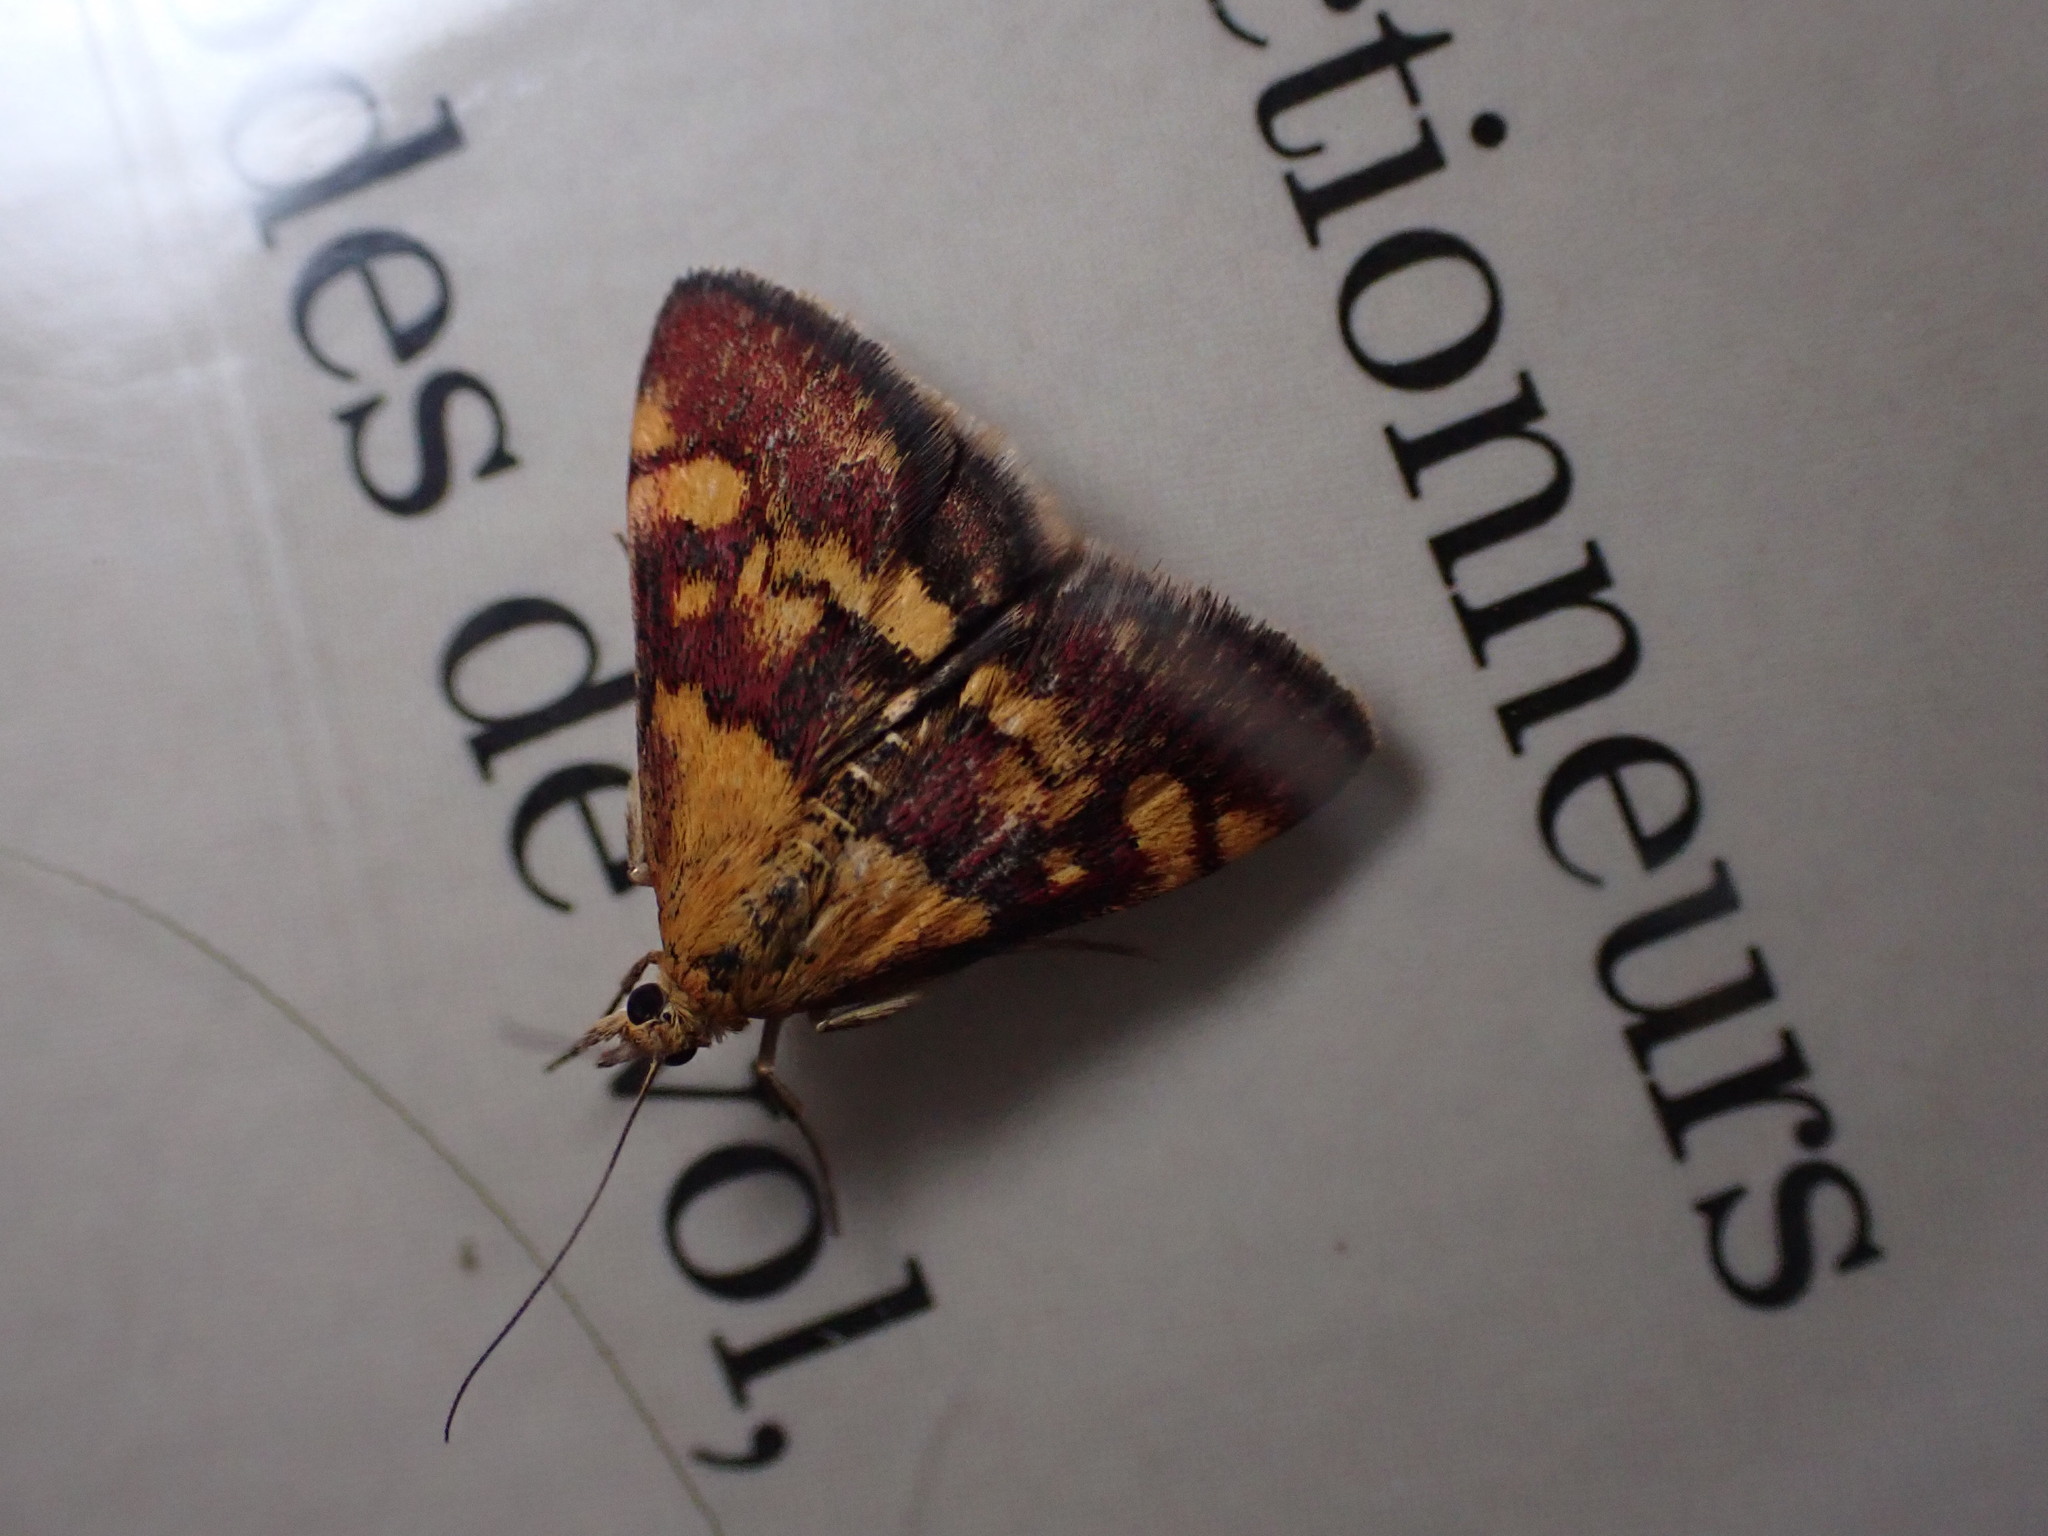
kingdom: Animalia
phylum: Arthropoda
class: Insecta
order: Lepidoptera
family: Crambidae
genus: Pyrausta
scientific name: Pyrausta aurata
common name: Small purple & gold
